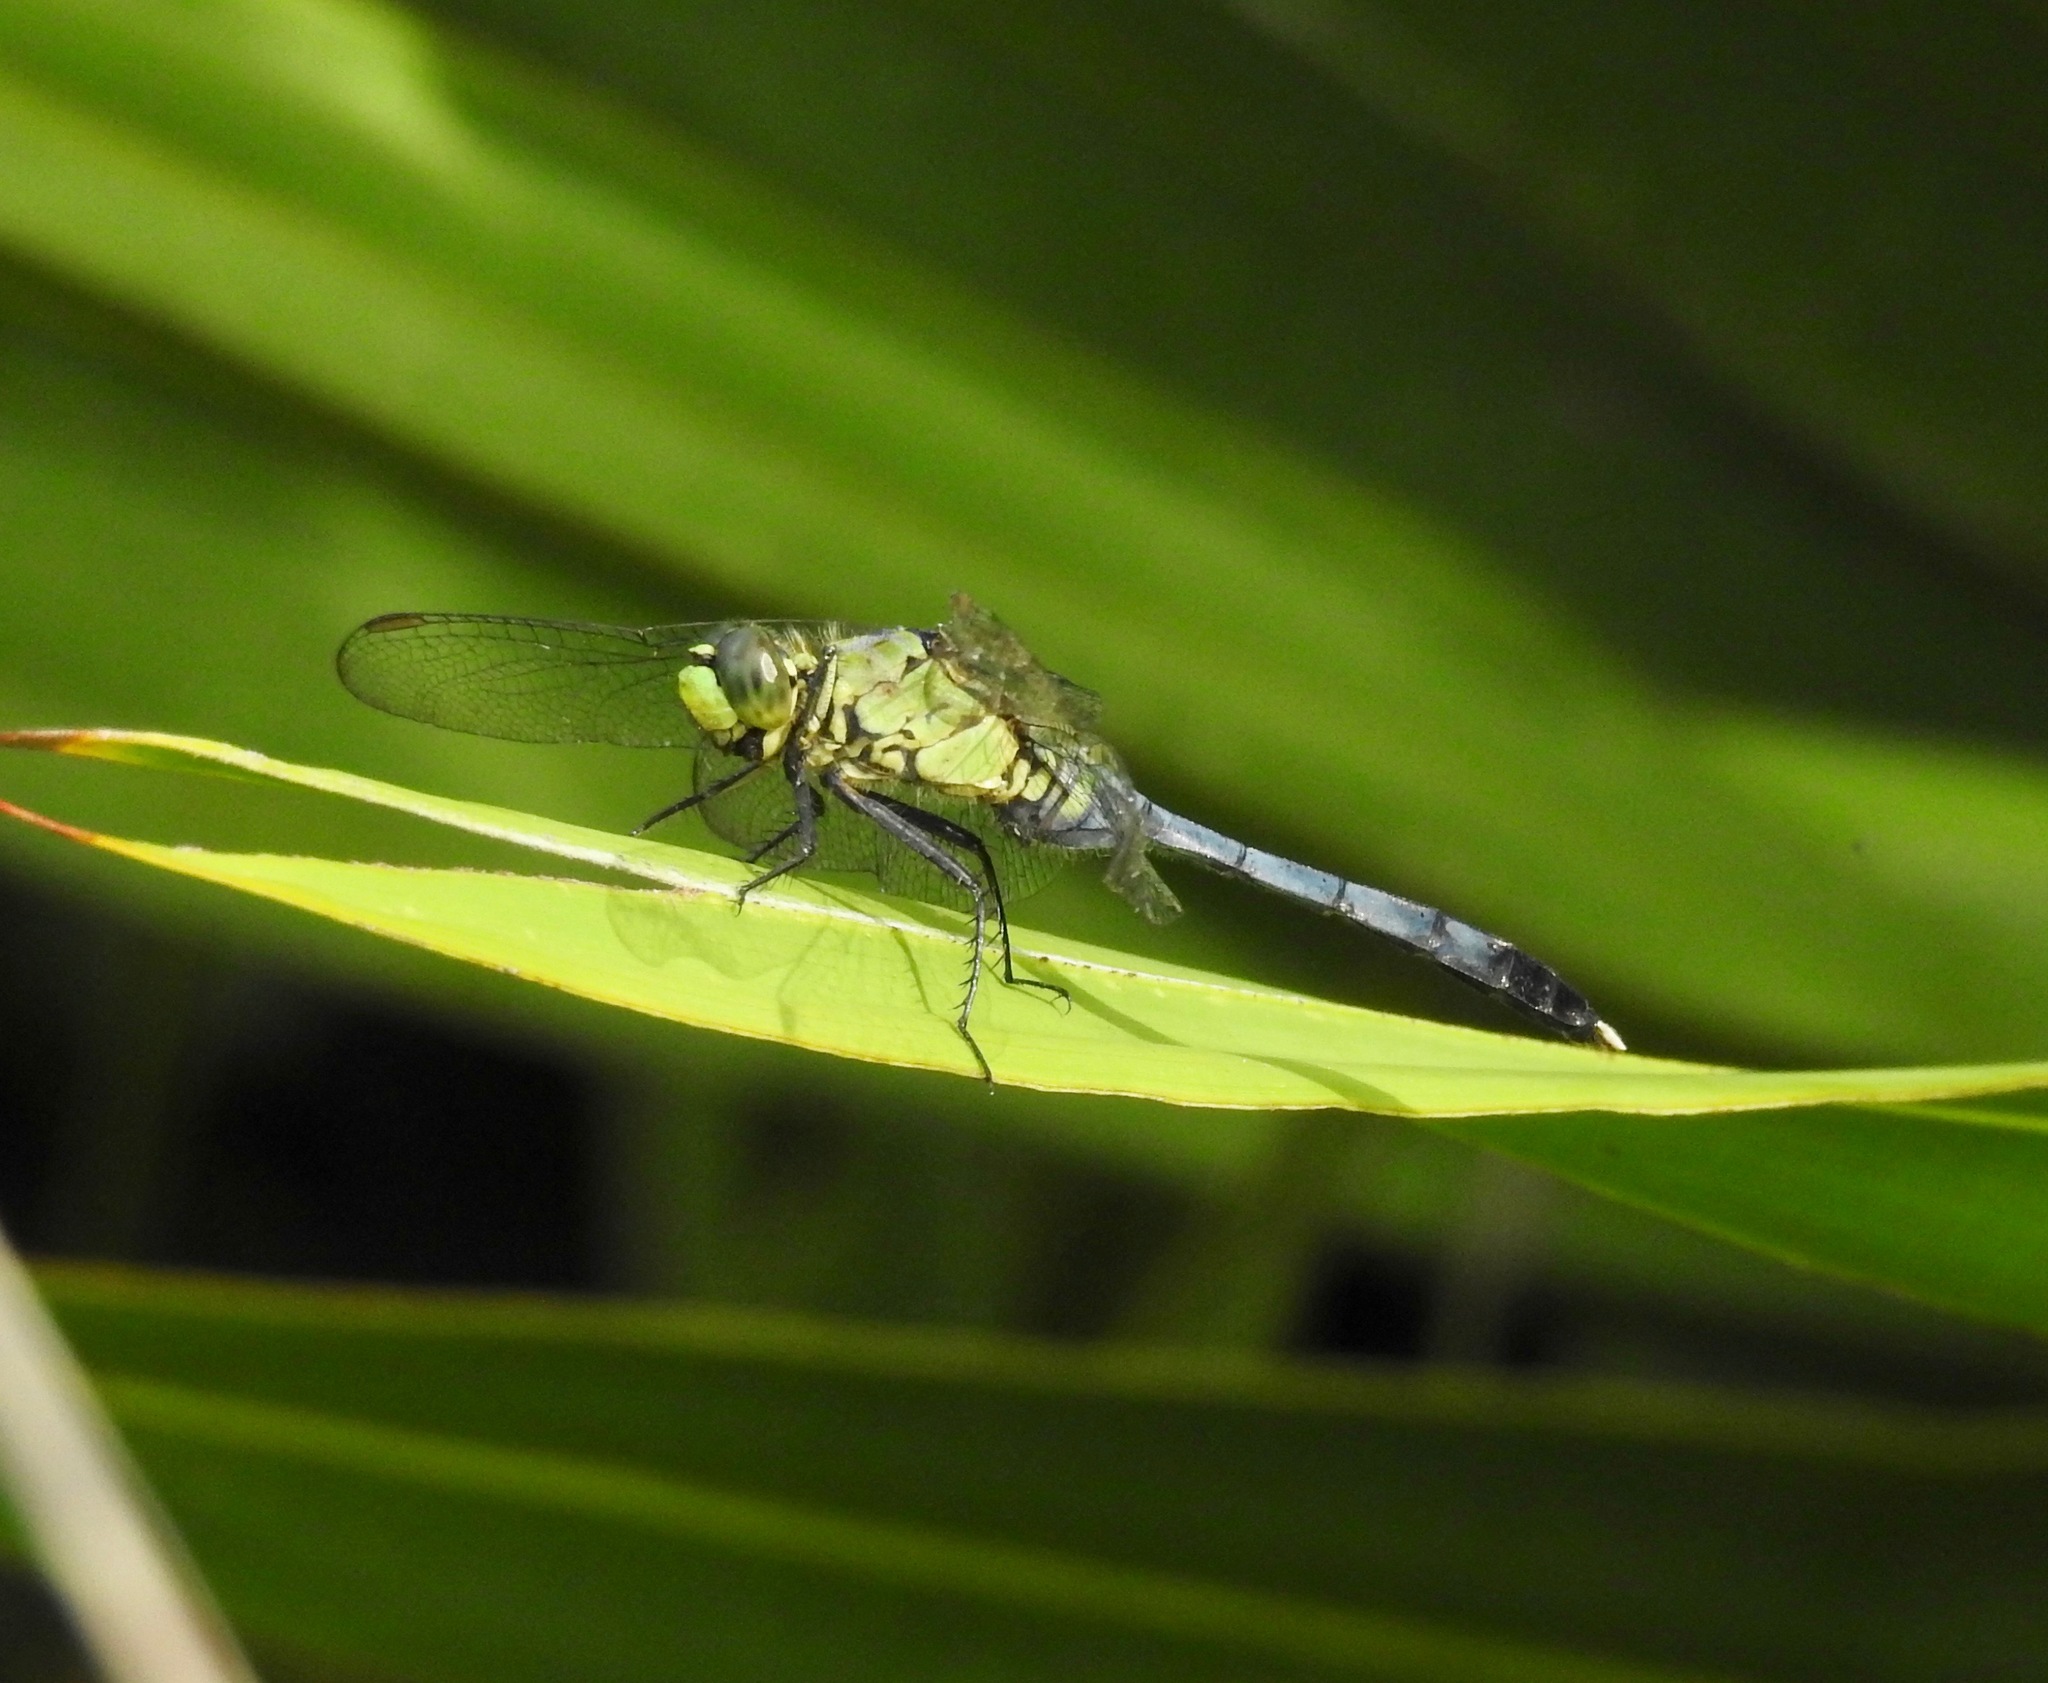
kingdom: Animalia
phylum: Arthropoda
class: Insecta
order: Odonata
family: Libellulidae
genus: Erythemis
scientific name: Erythemis simplicicollis
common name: Eastern pondhawk
